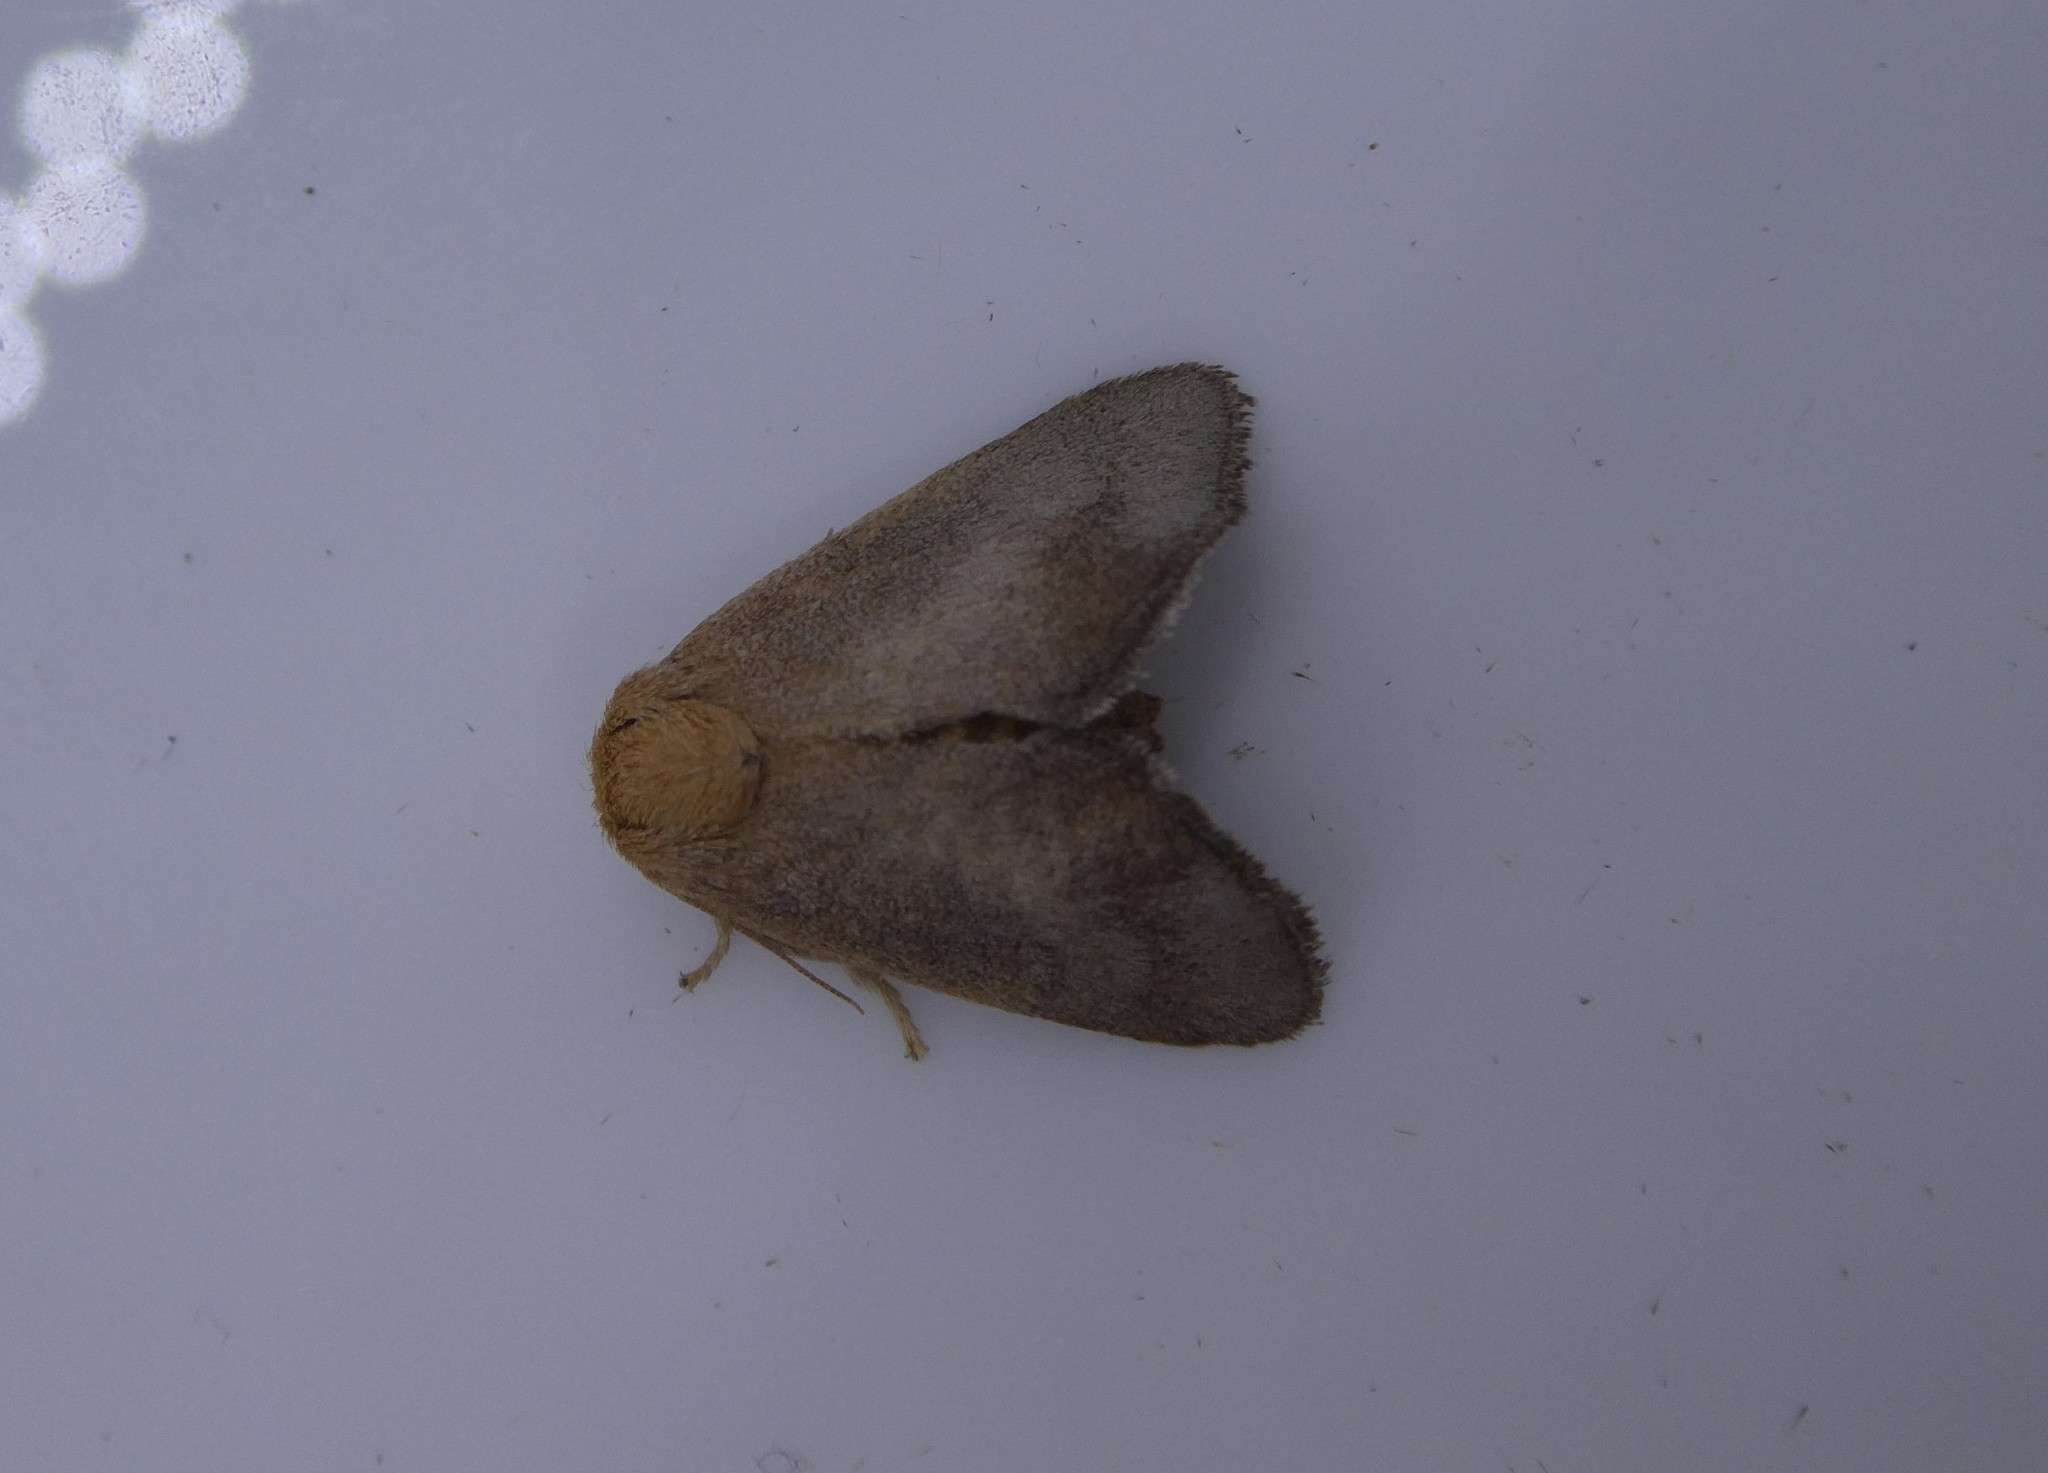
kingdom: Animalia
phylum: Arthropoda
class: Insecta
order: Lepidoptera
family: Limacodidae
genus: Isa
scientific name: Isa textula
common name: Crowned slug moth
